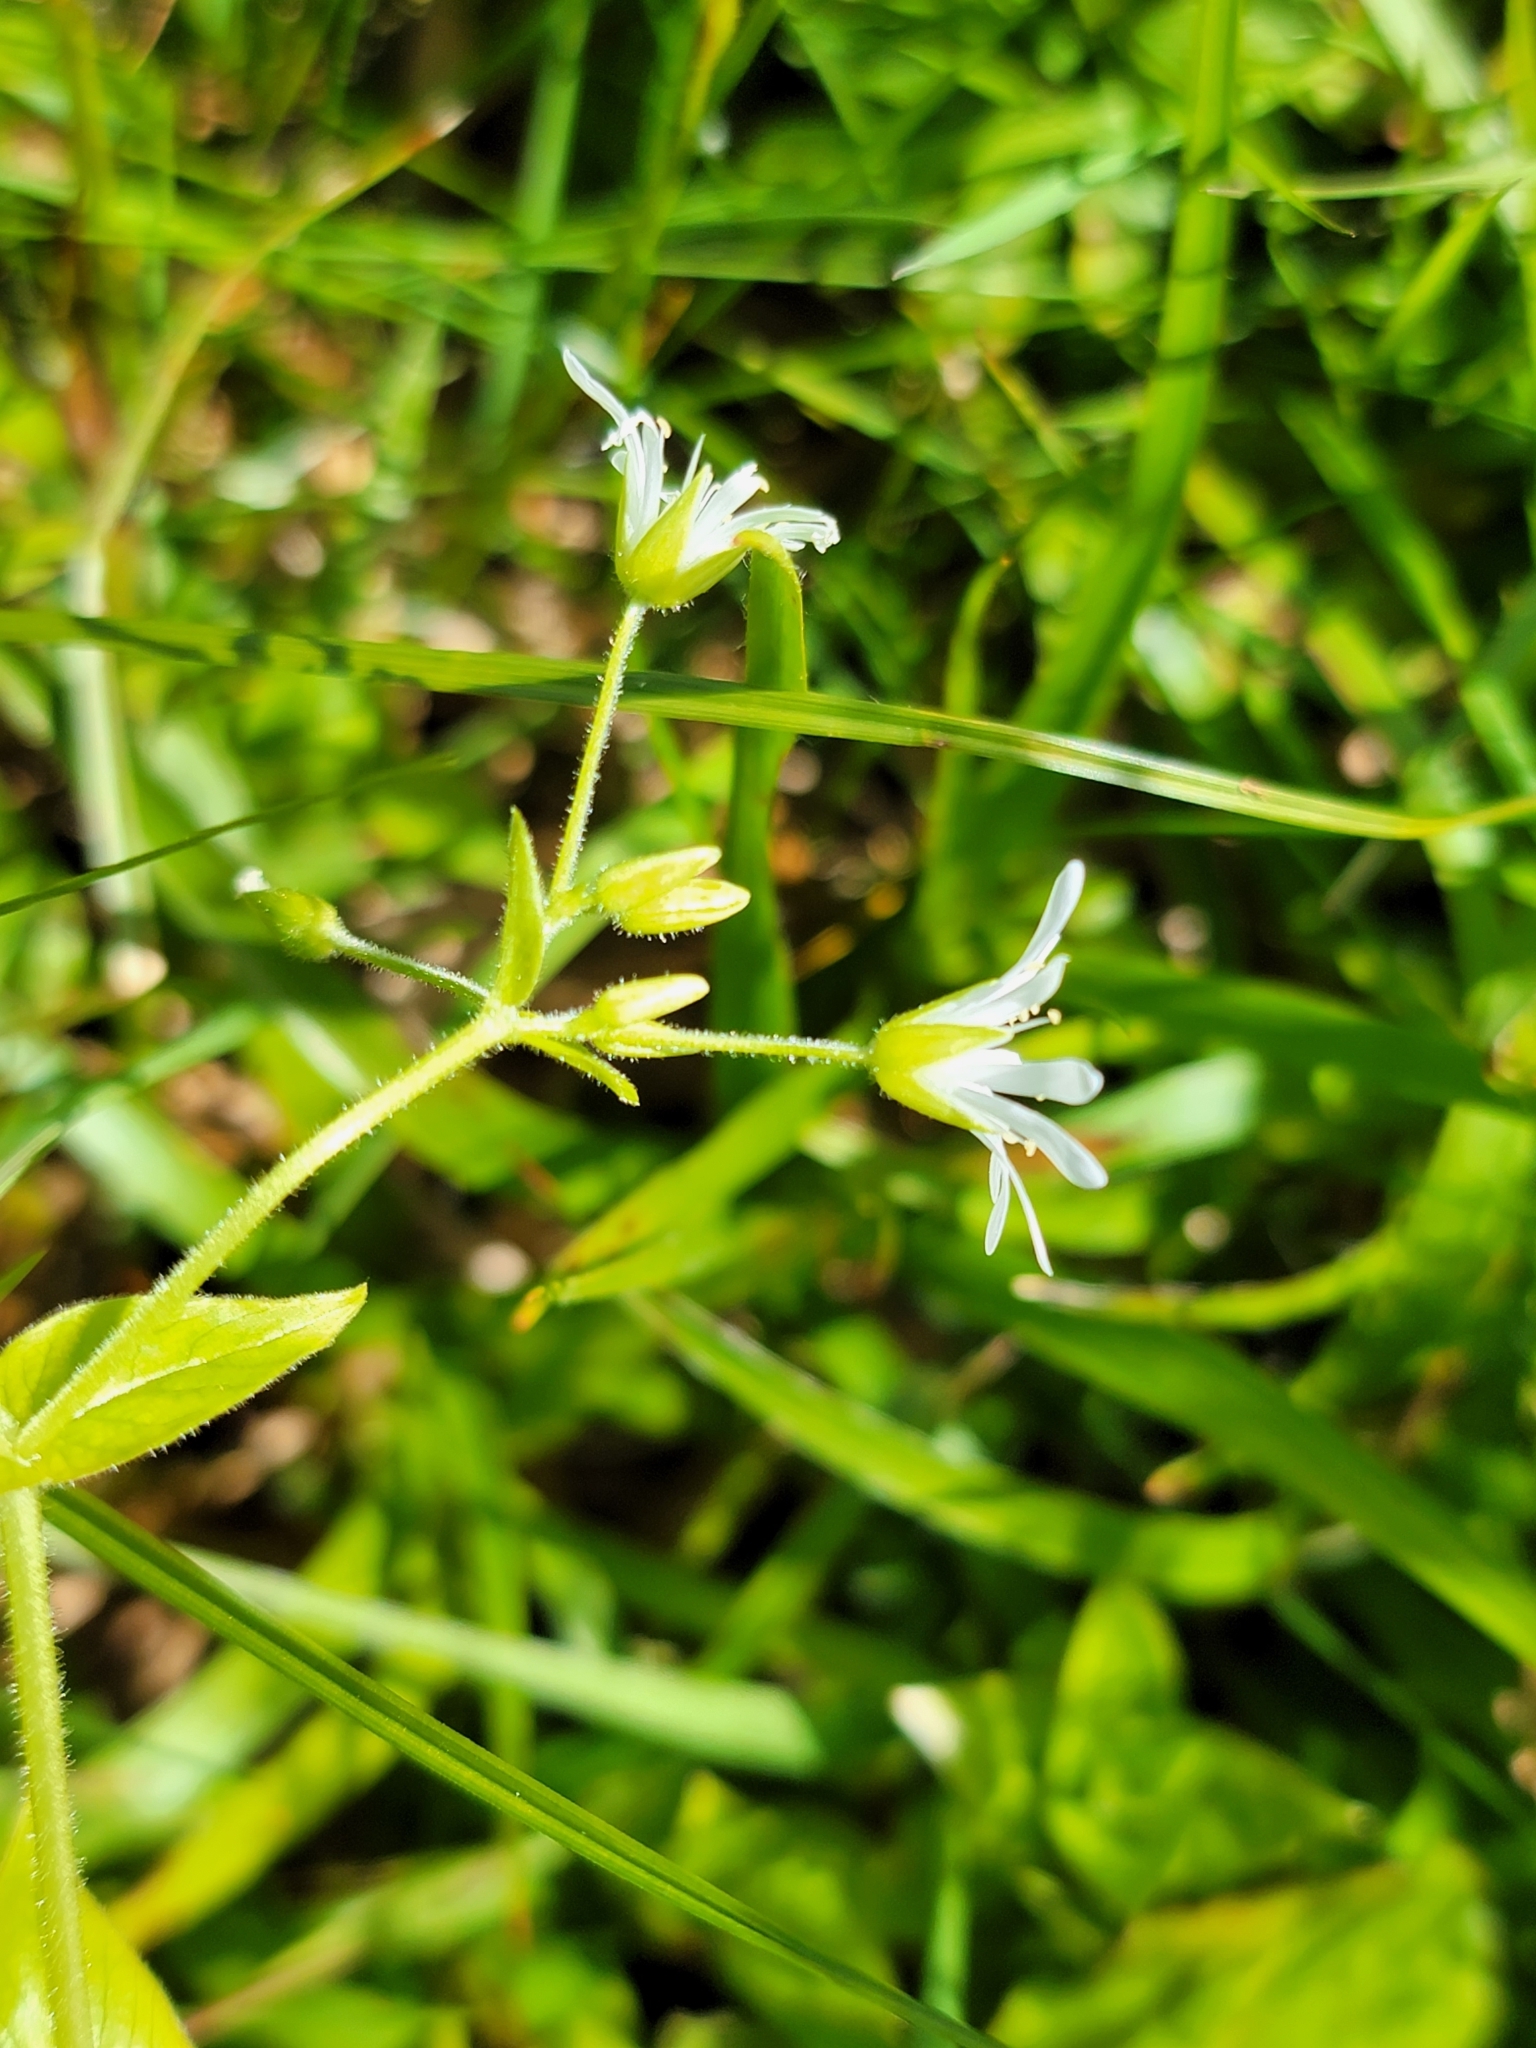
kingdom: Plantae
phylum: Tracheophyta
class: Magnoliopsida
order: Caryophyllales
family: Caryophyllaceae
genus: Stellaria
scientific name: Stellaria nemorum
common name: Wood stitchwort
